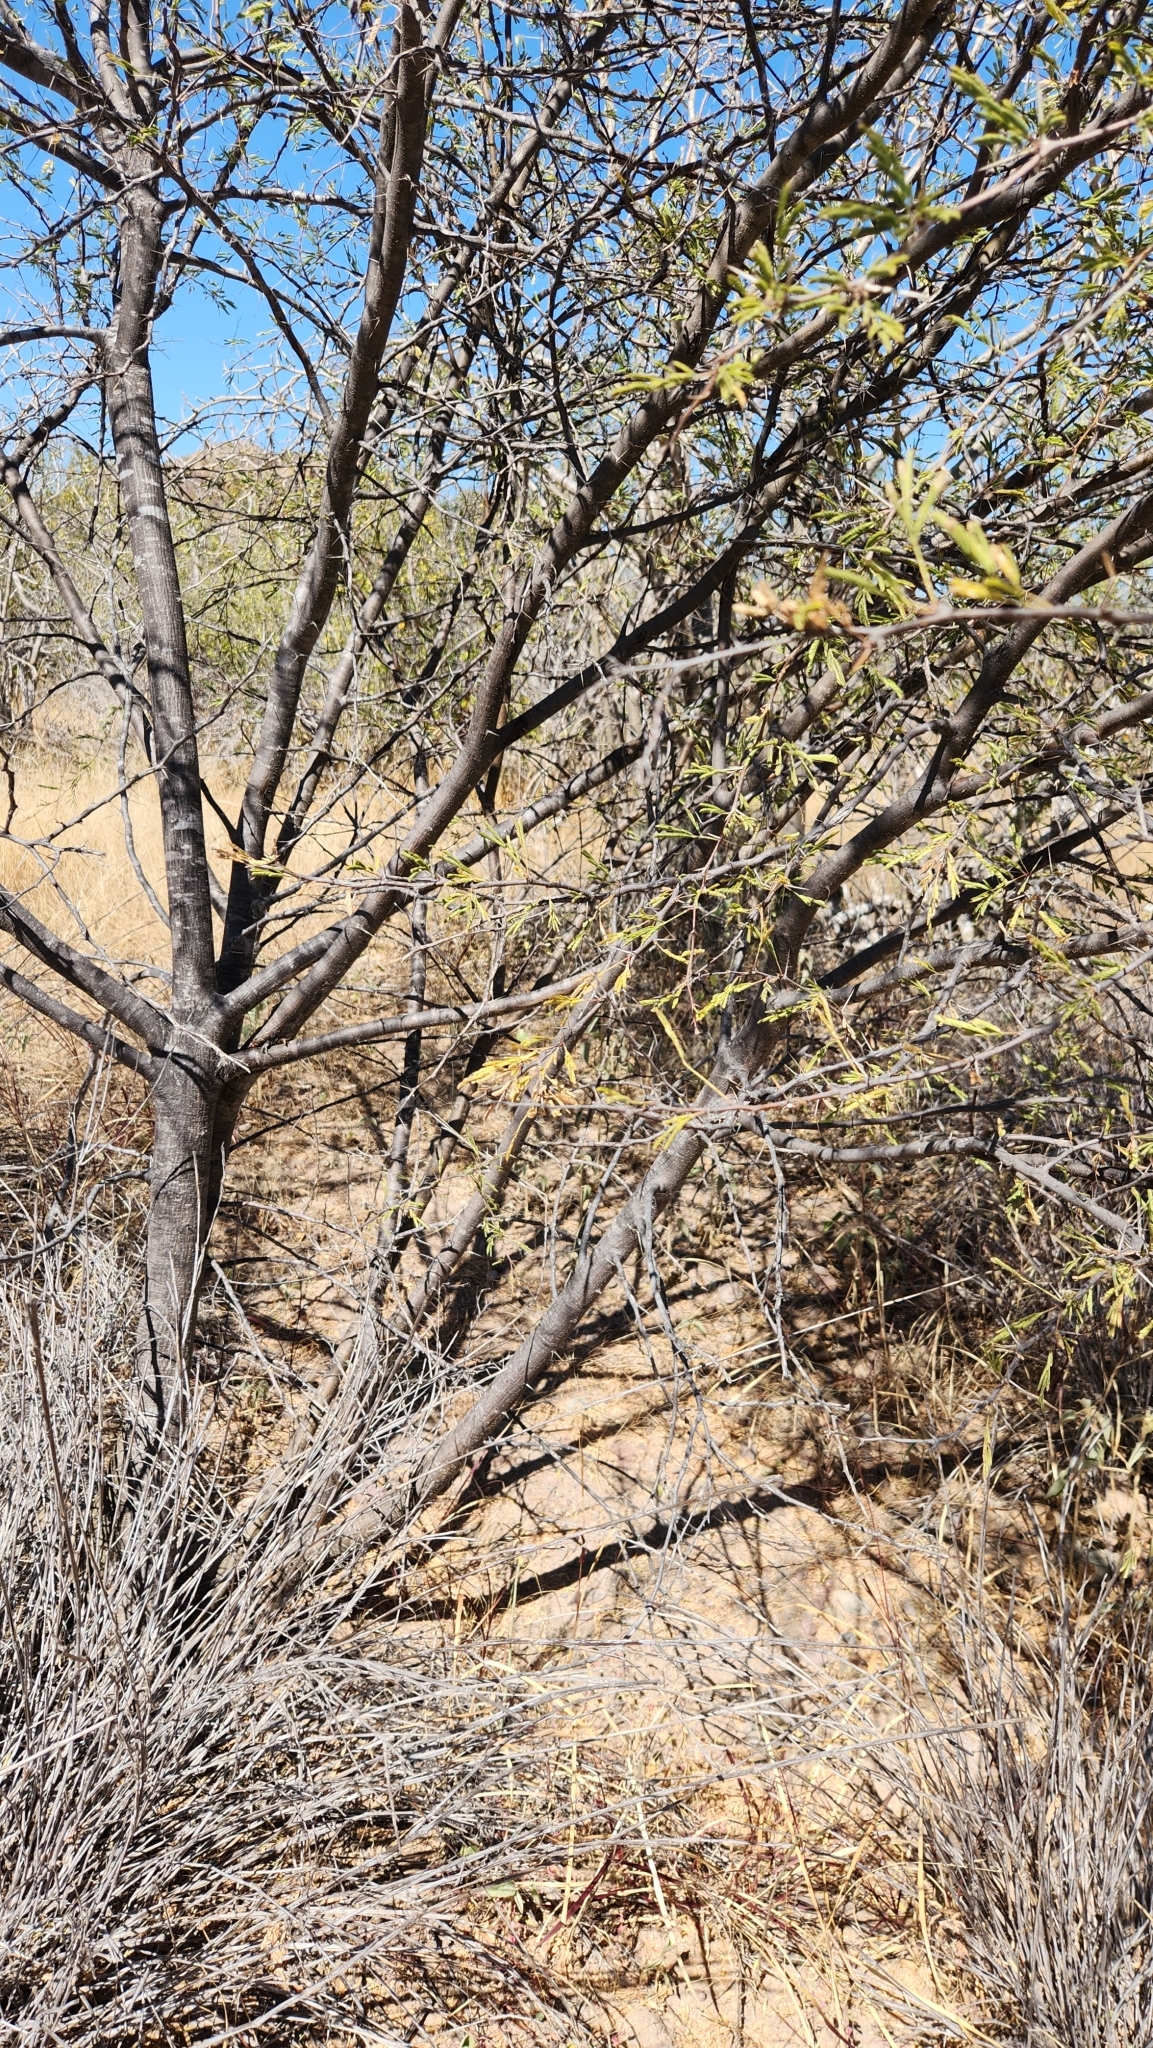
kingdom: Plantae
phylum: Tracheophyta
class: Magnoliopsida
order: Fabales
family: Fabaceae
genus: Vachellia
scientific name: Vachellia farnesiana
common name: Sweet acacia
